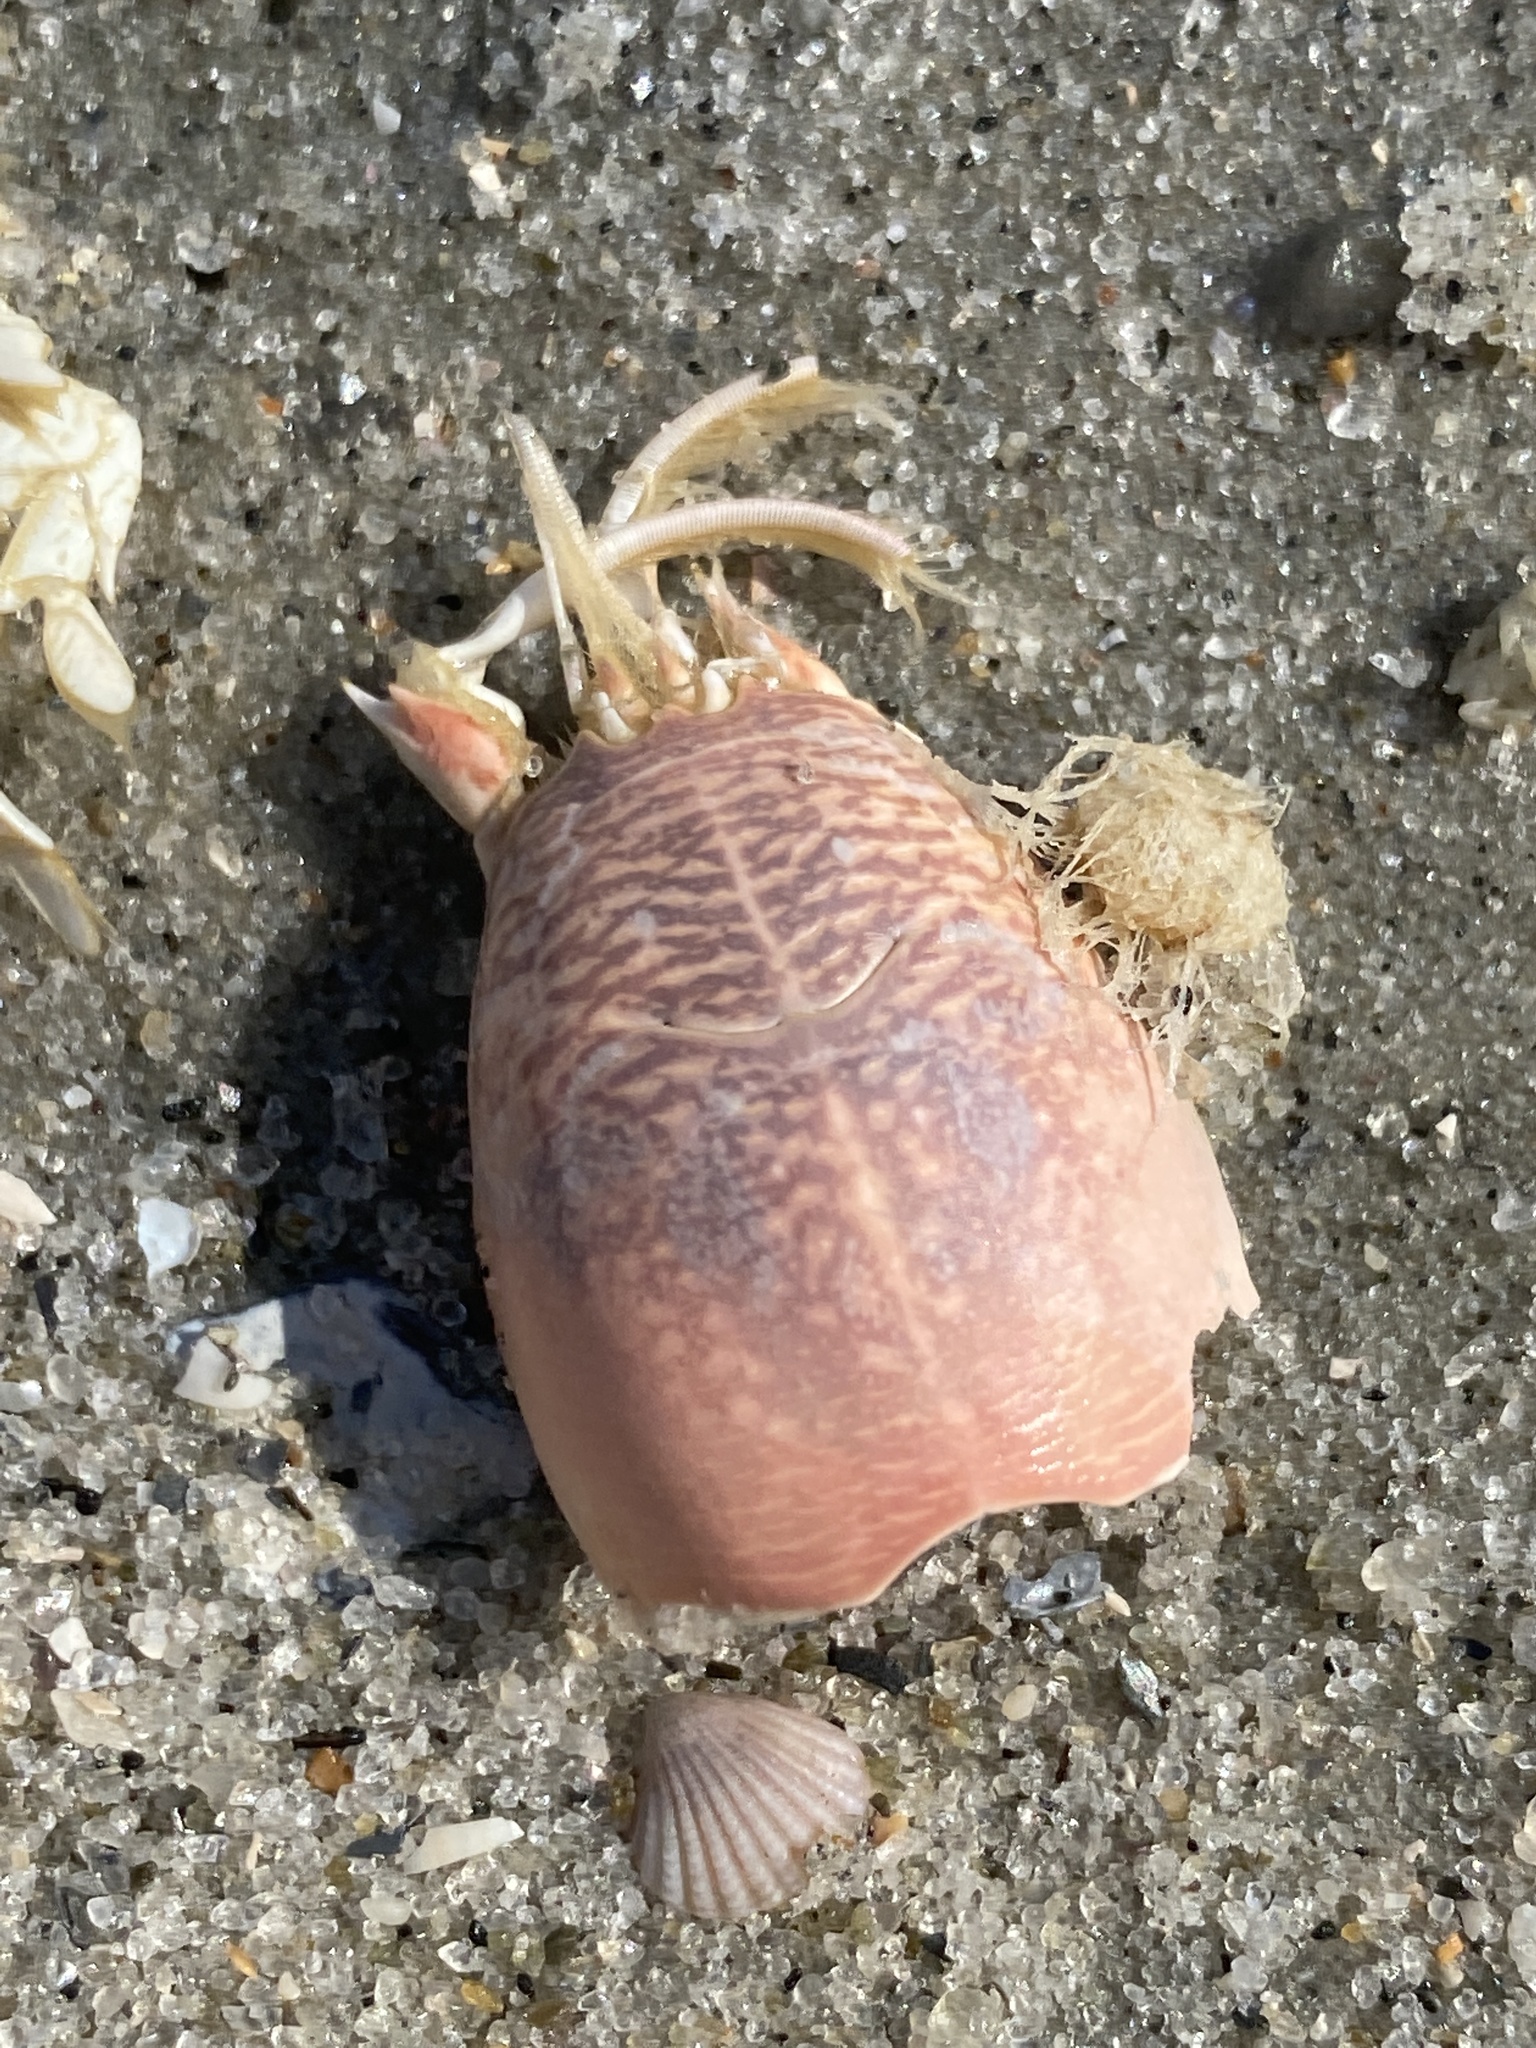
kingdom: Animalia
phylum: Arthropoda
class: Malacostraca
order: Decapoda
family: Hippidae
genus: Emerita
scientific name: Emerita talpoida
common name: Atlantic sand crab
